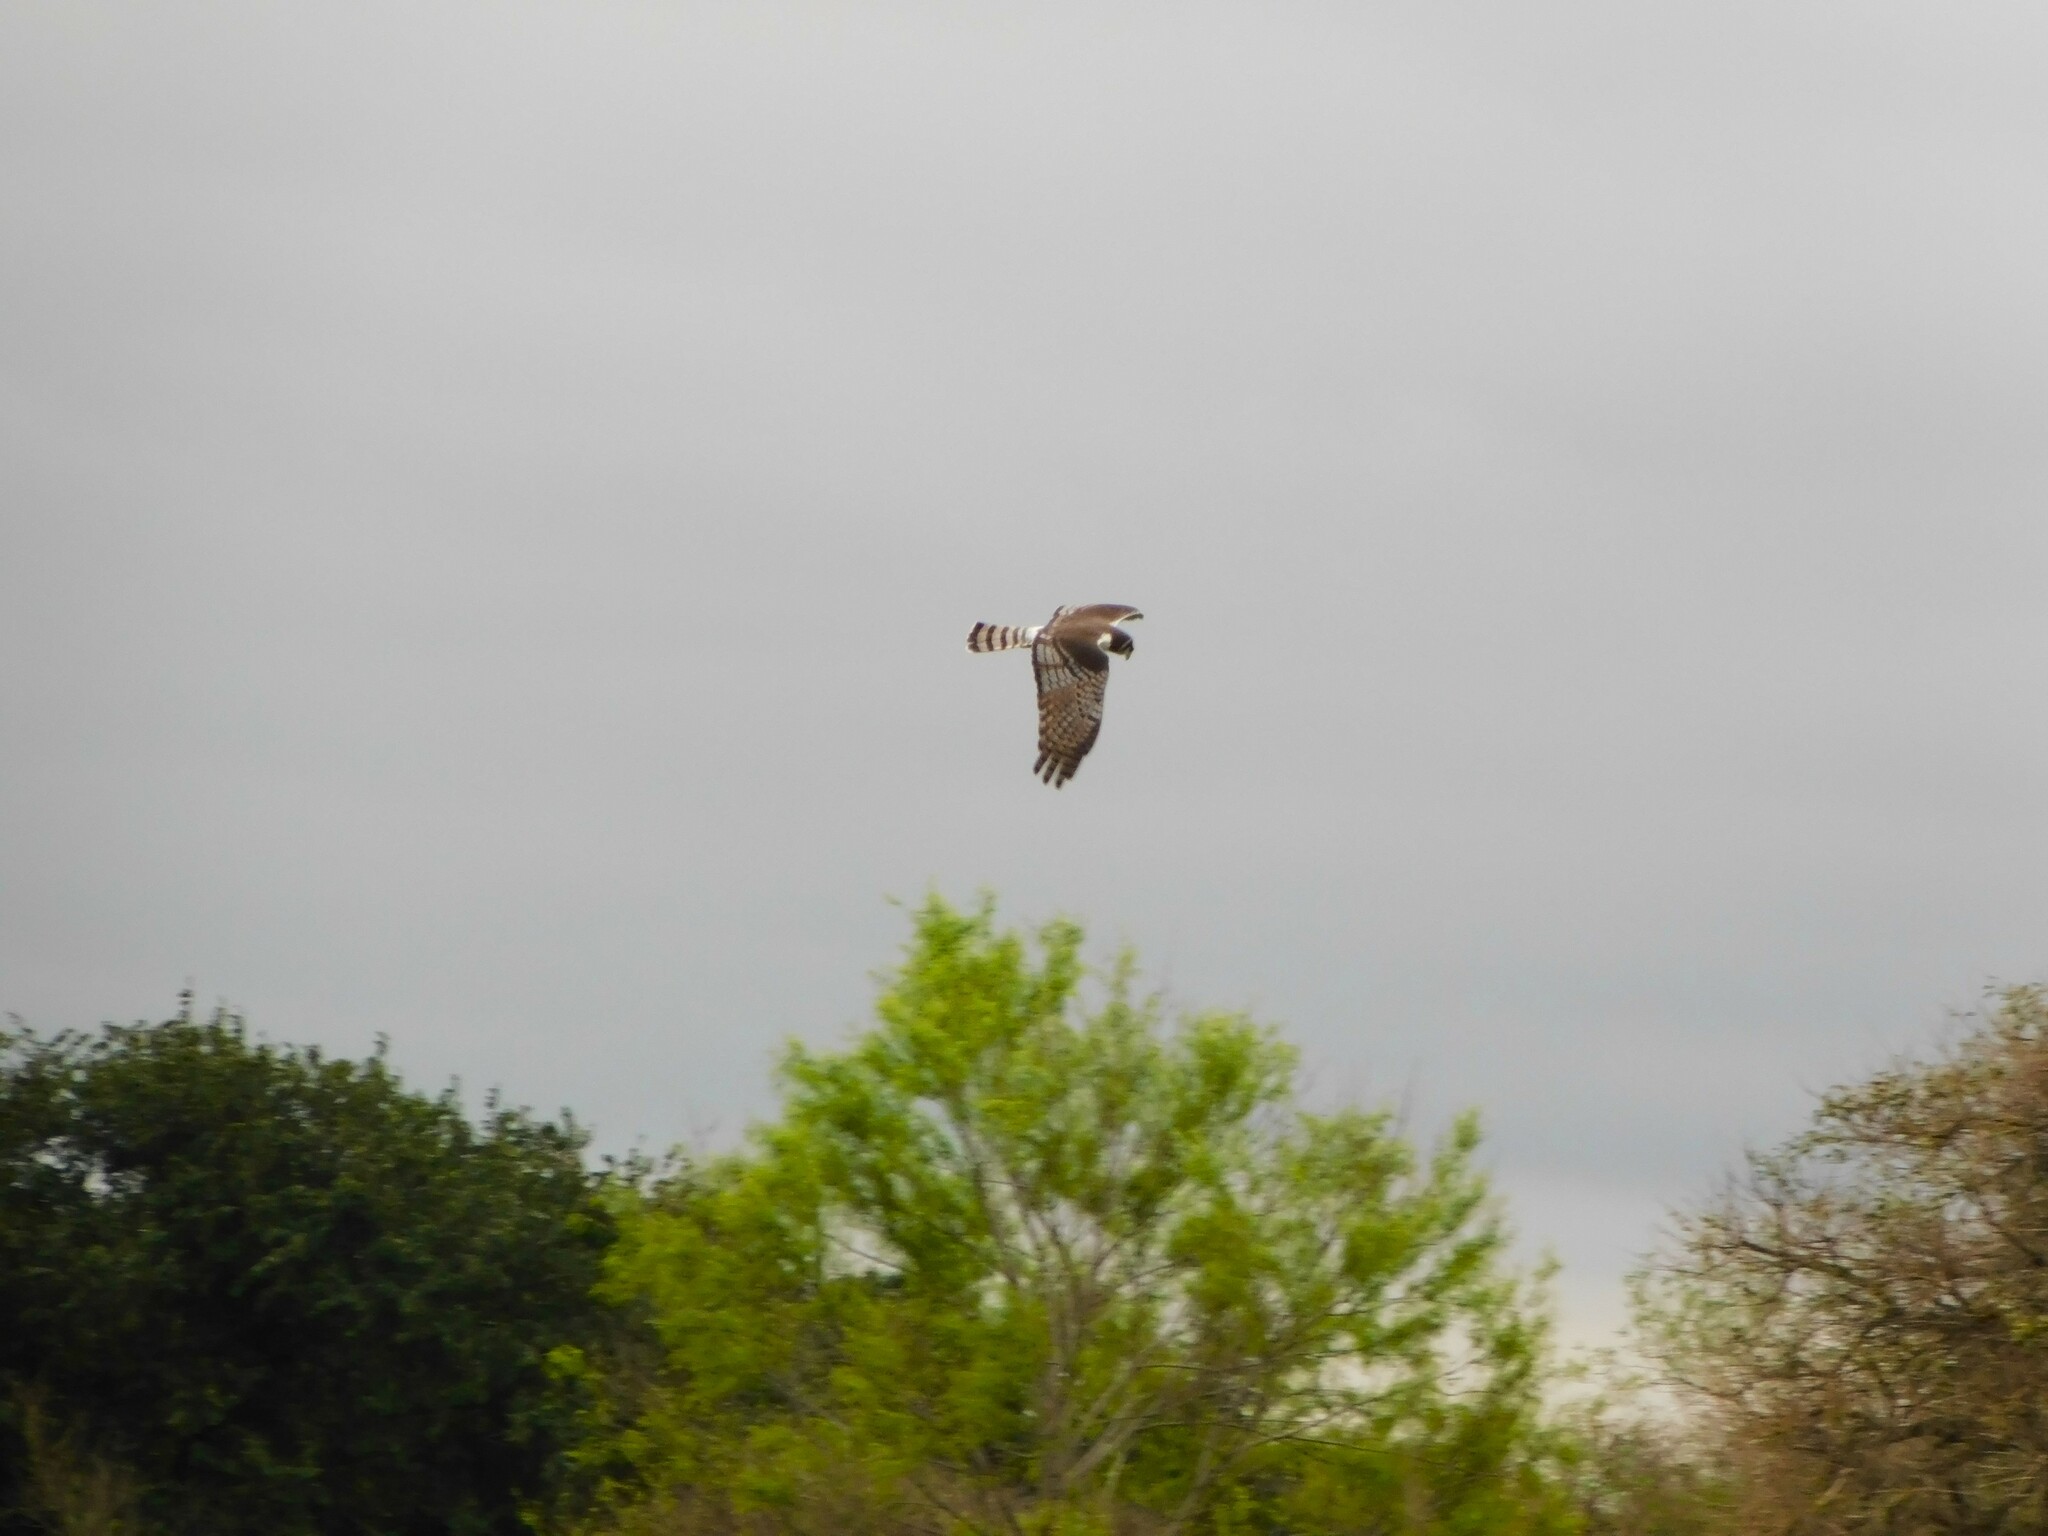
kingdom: Animalia
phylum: Chordata
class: Aves
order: Accipitriformes
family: Accipitridae
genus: Circus
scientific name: Circus buffoni
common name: Long-winged harrier
